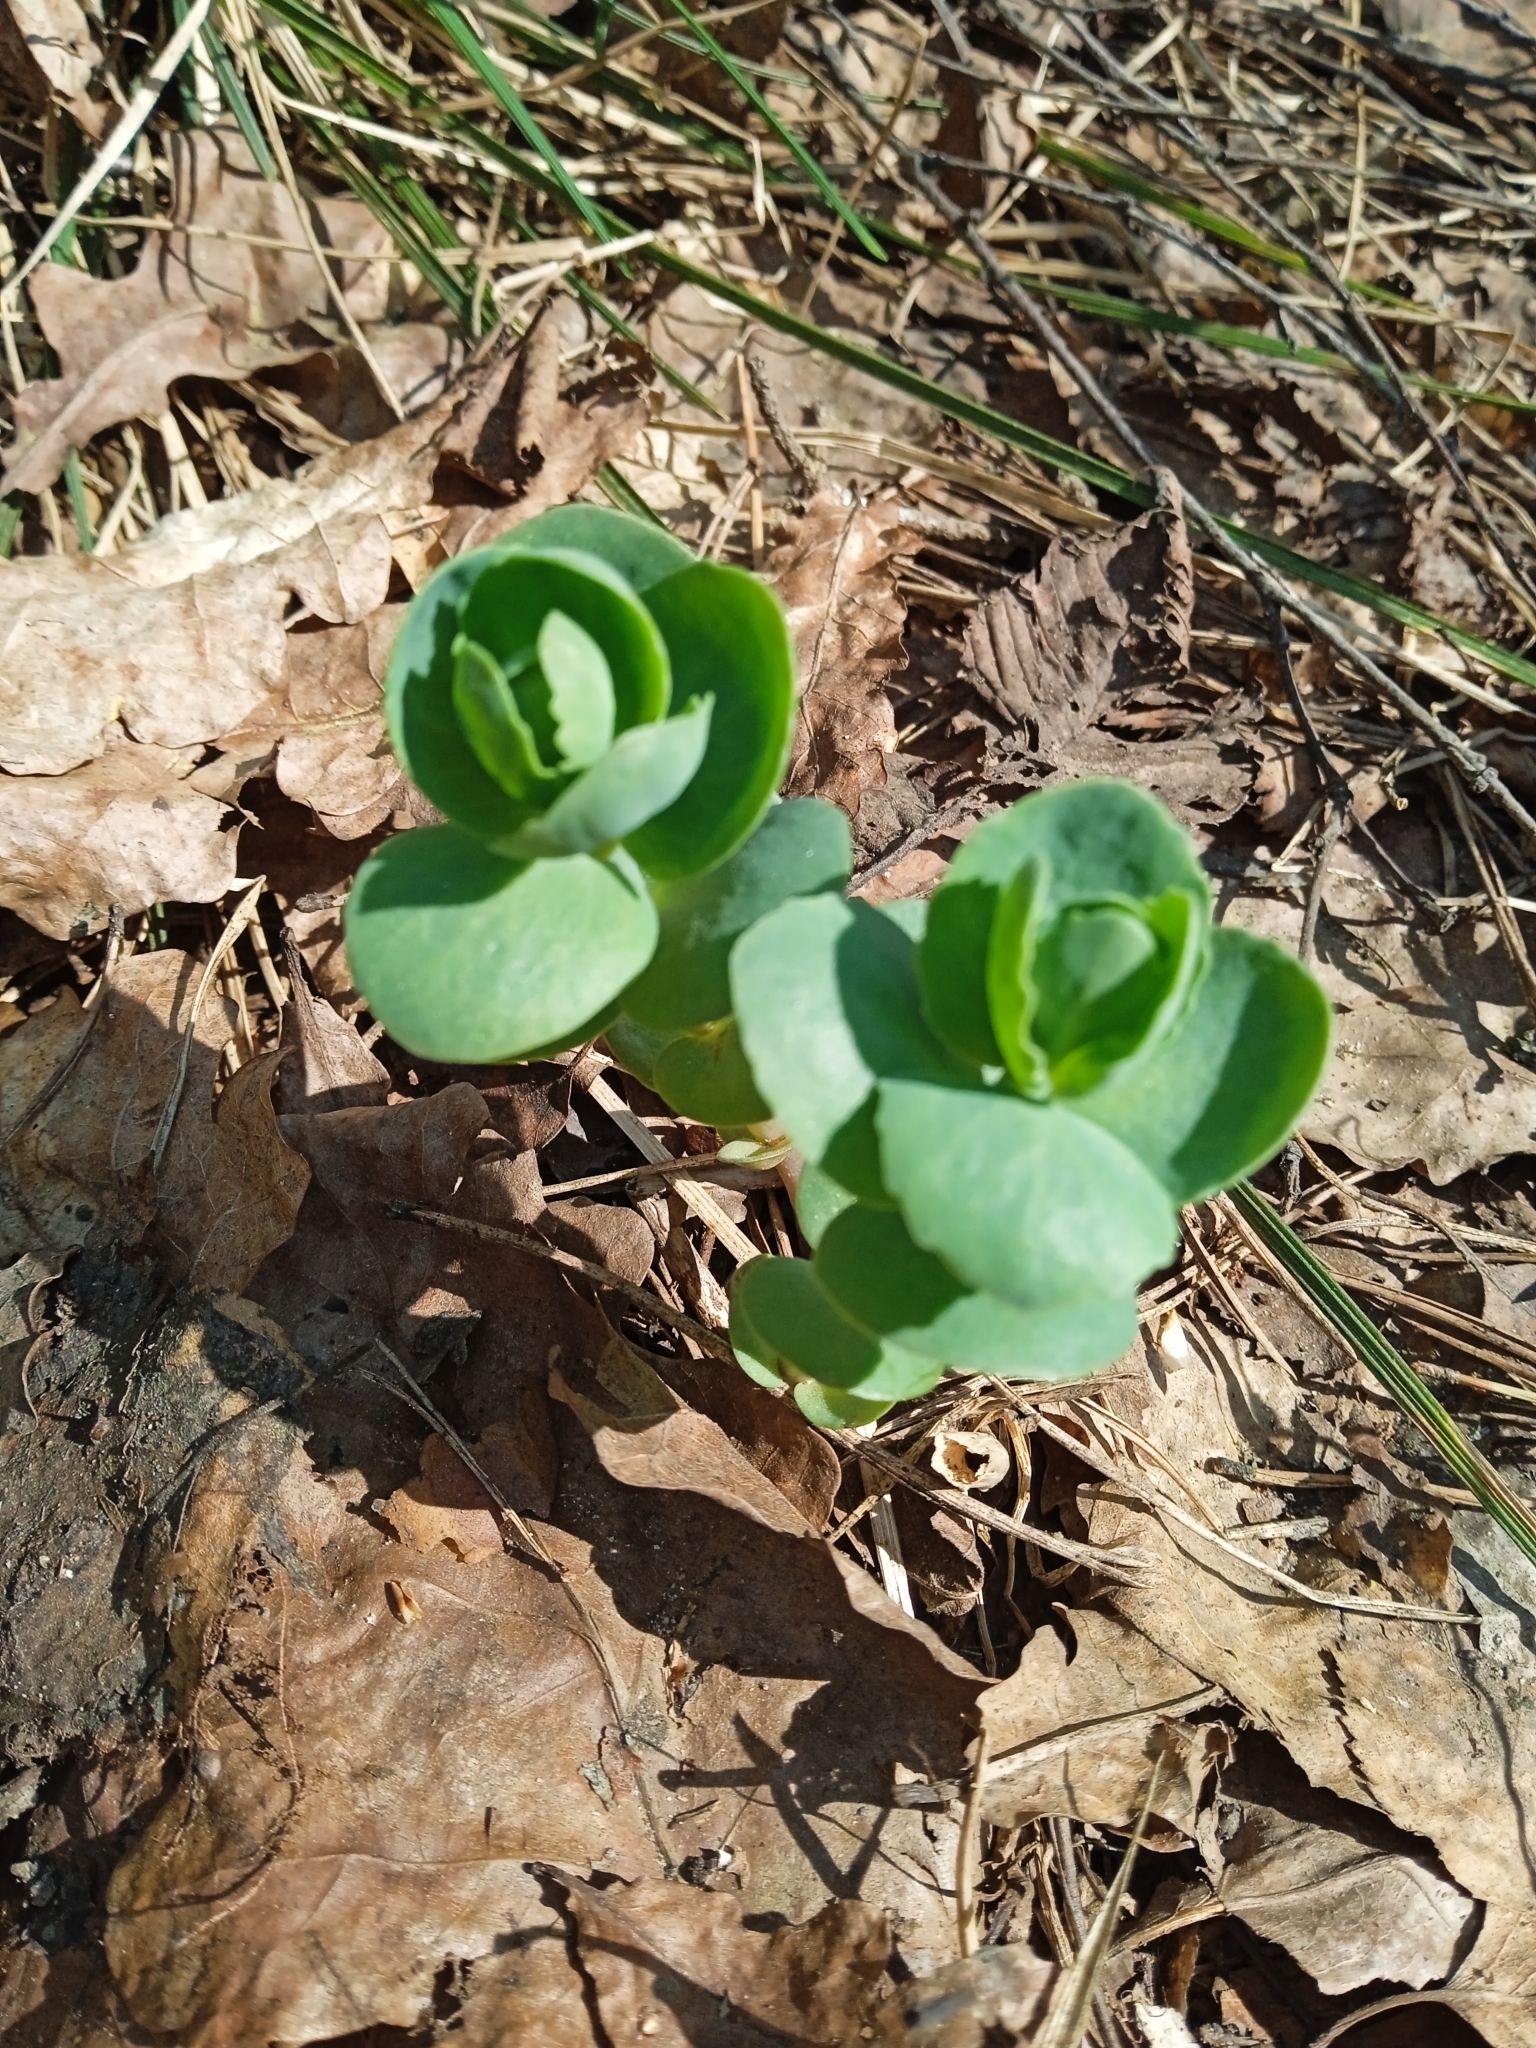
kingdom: Plantae
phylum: Tracheophyta
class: Magnoliopsida
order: Saxifragales
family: Crassulaceae
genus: Hylotelephium
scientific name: Hylotelephium maximum
